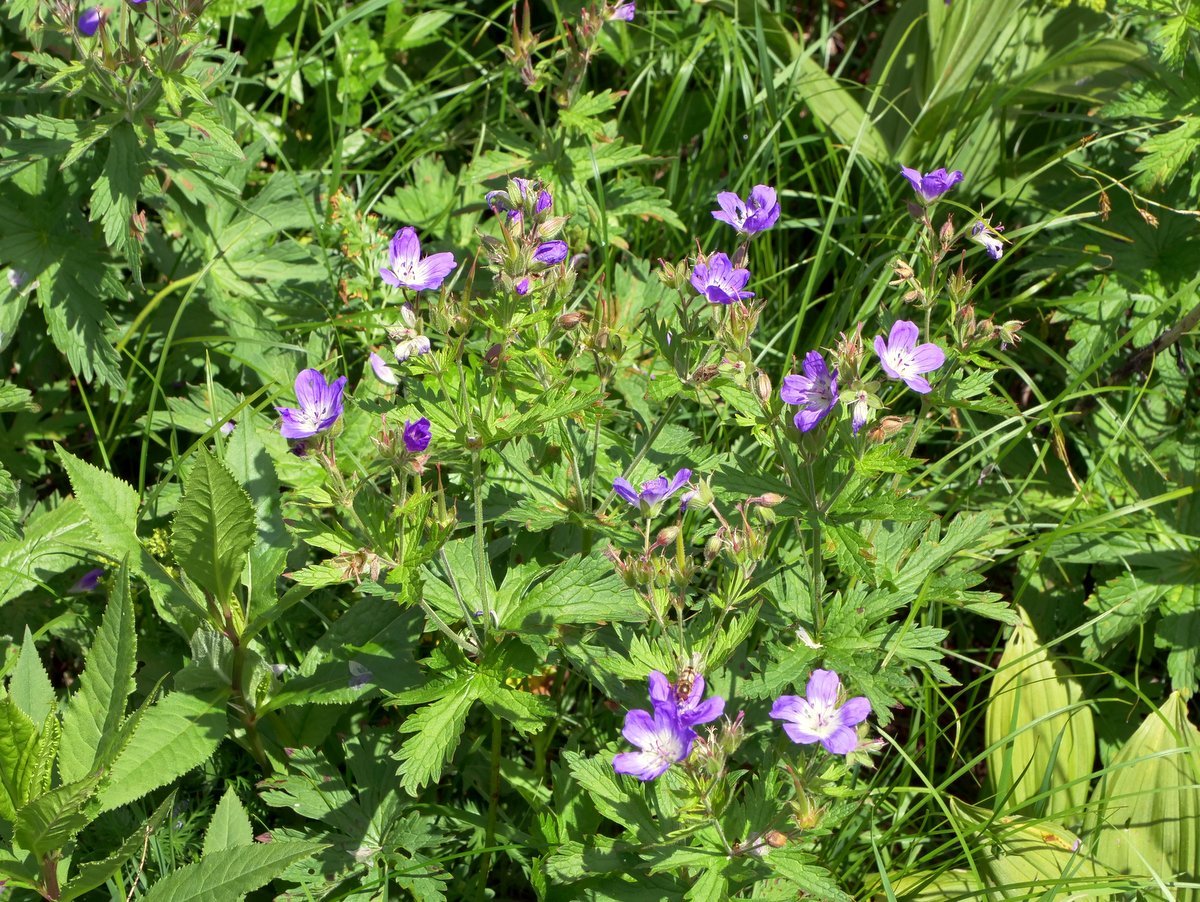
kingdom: Plantae
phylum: Tracheophyta
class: Magnoliopsida
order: Geraniales
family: Geraniaceae
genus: Geranium
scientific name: Geranium sylvaticum
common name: Wood crane's-bill
